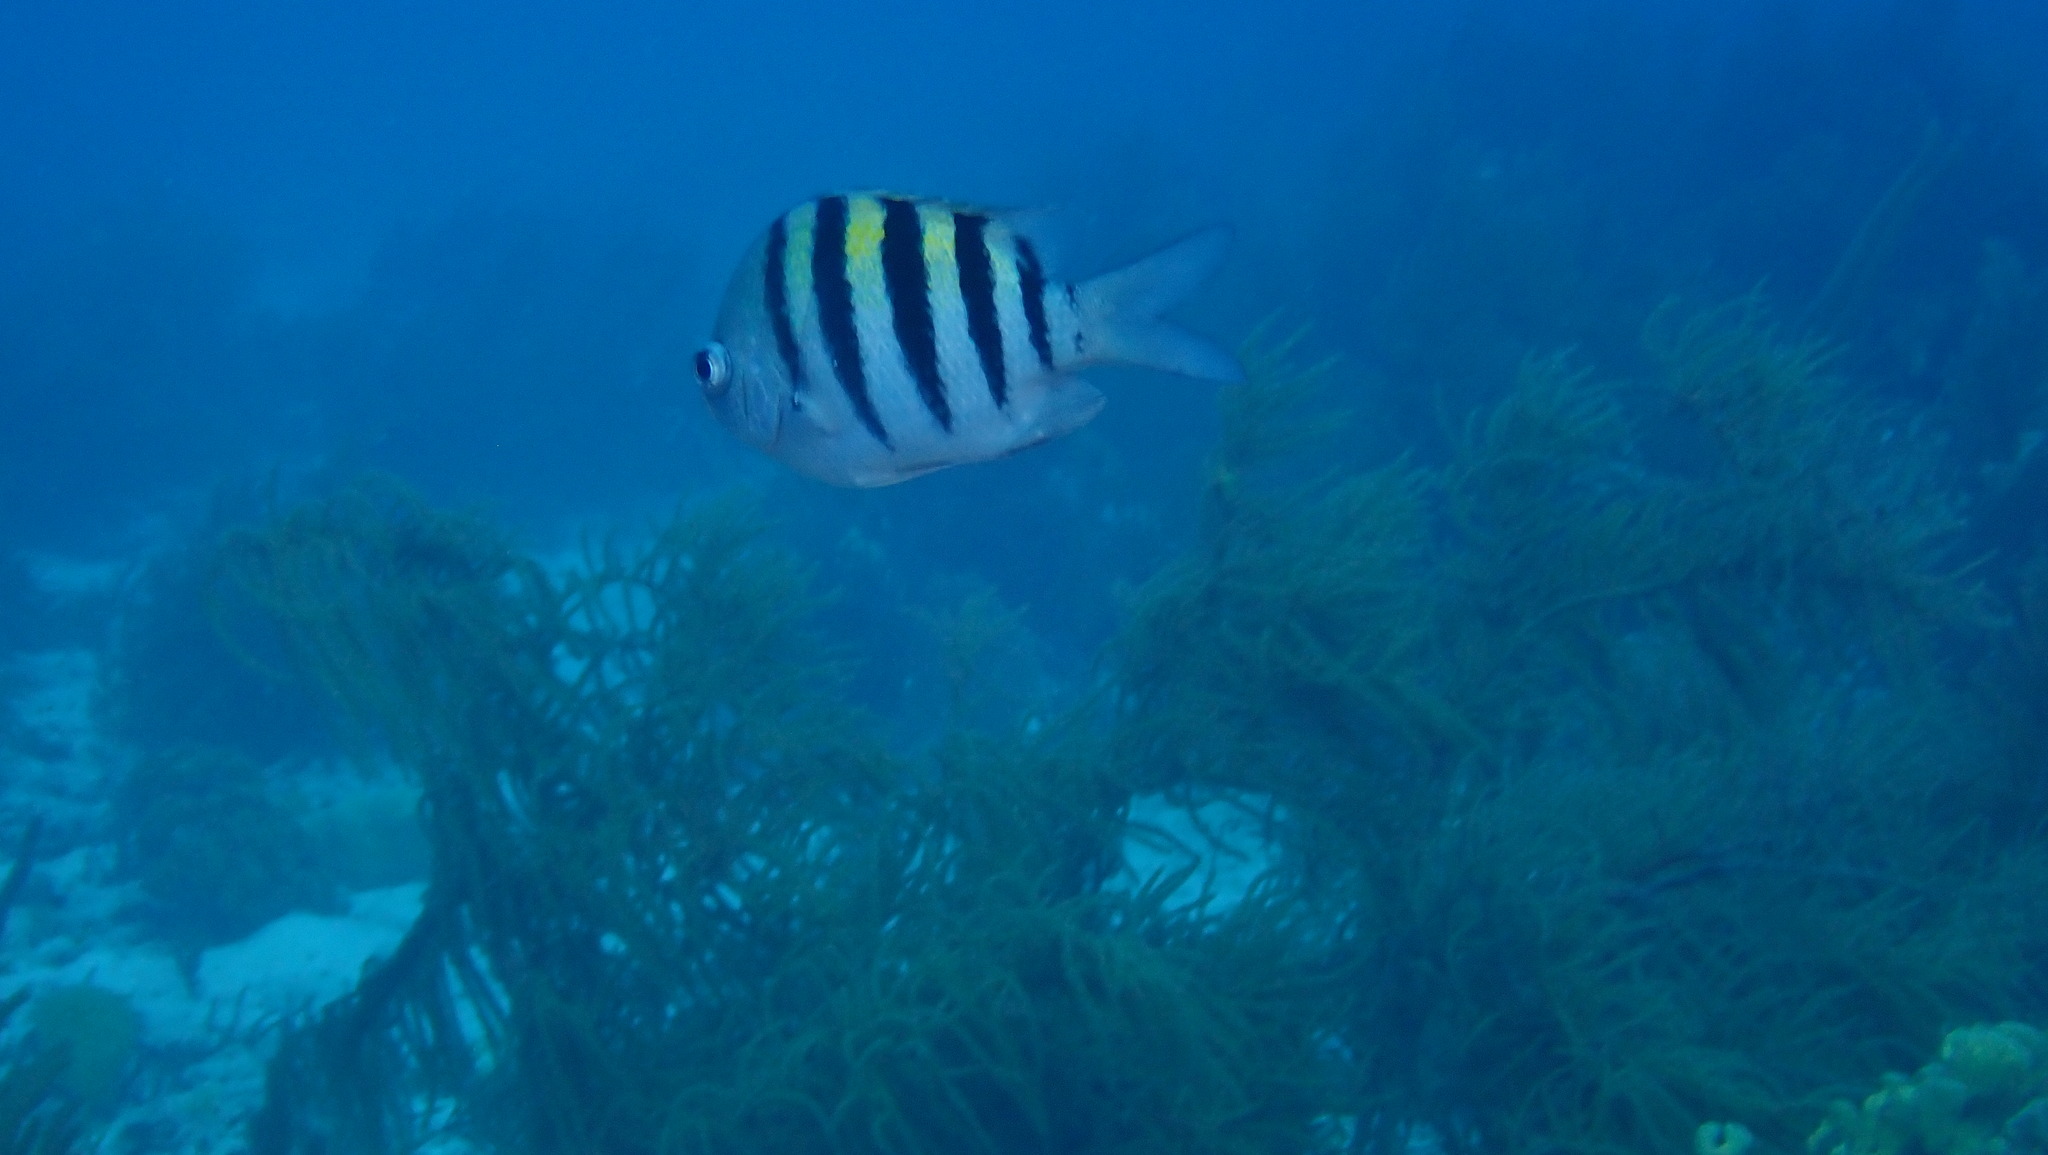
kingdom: Animalia
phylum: Chordata
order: Perciformes
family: Pomacentridae
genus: Abudefduf
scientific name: Abudefduf saxatilis
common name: Sergeant major
